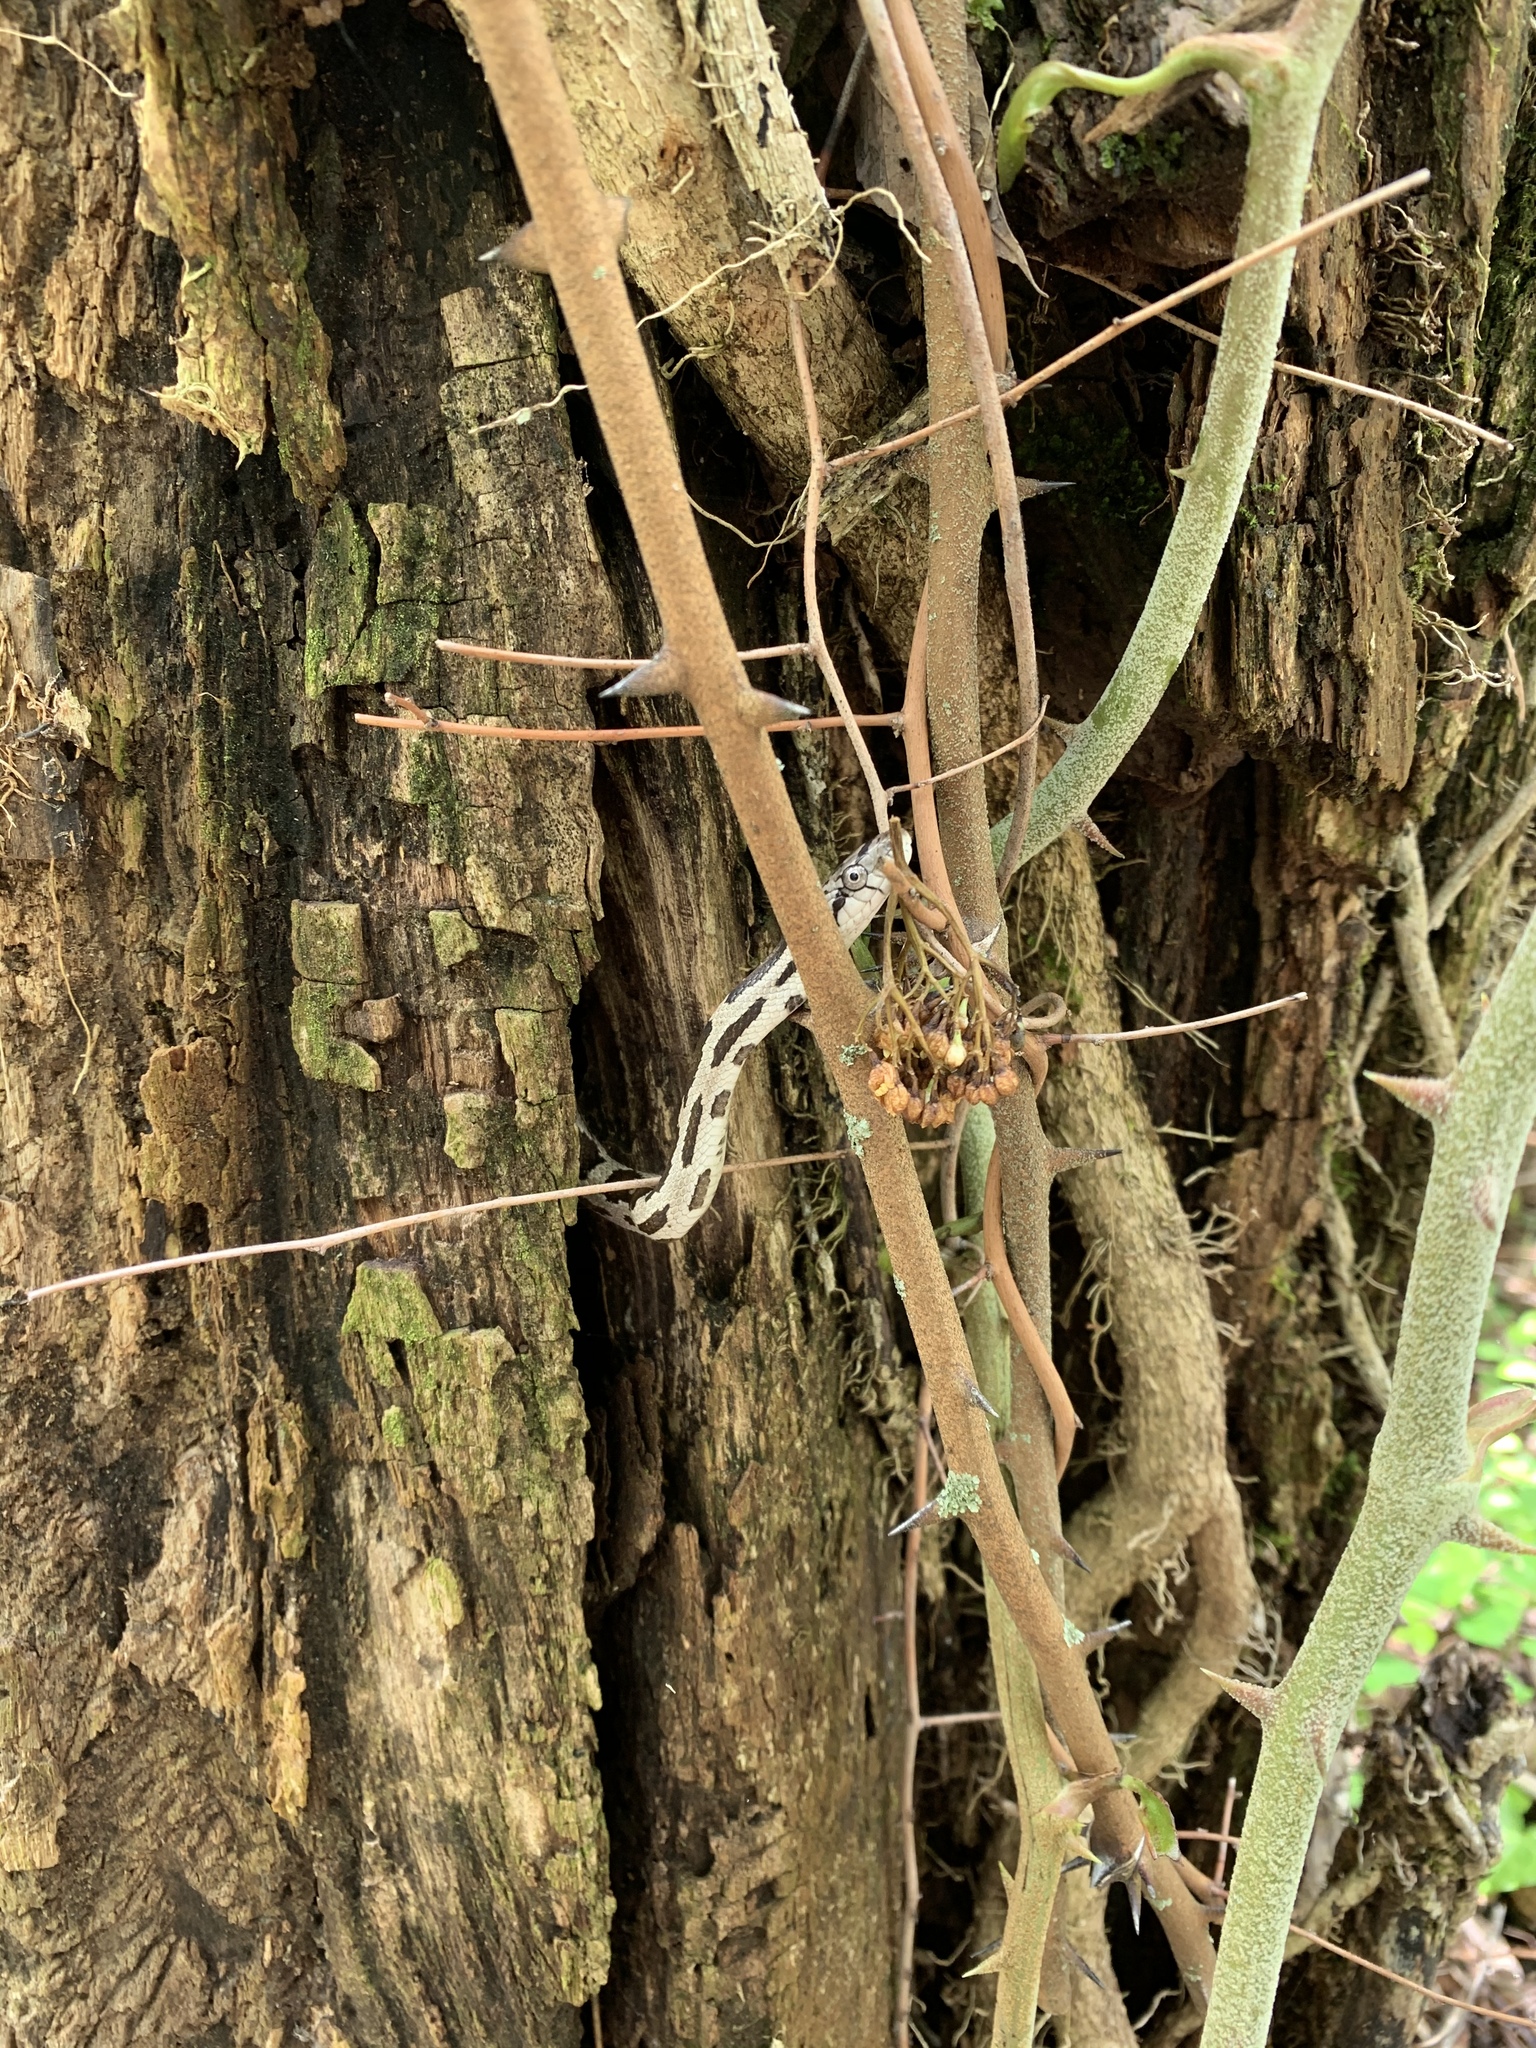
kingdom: Animalia
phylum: Chordata
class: Squamata
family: Colubridae
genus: Pantherophis
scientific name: Pantherophis spiloides
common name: Gray rat snake
